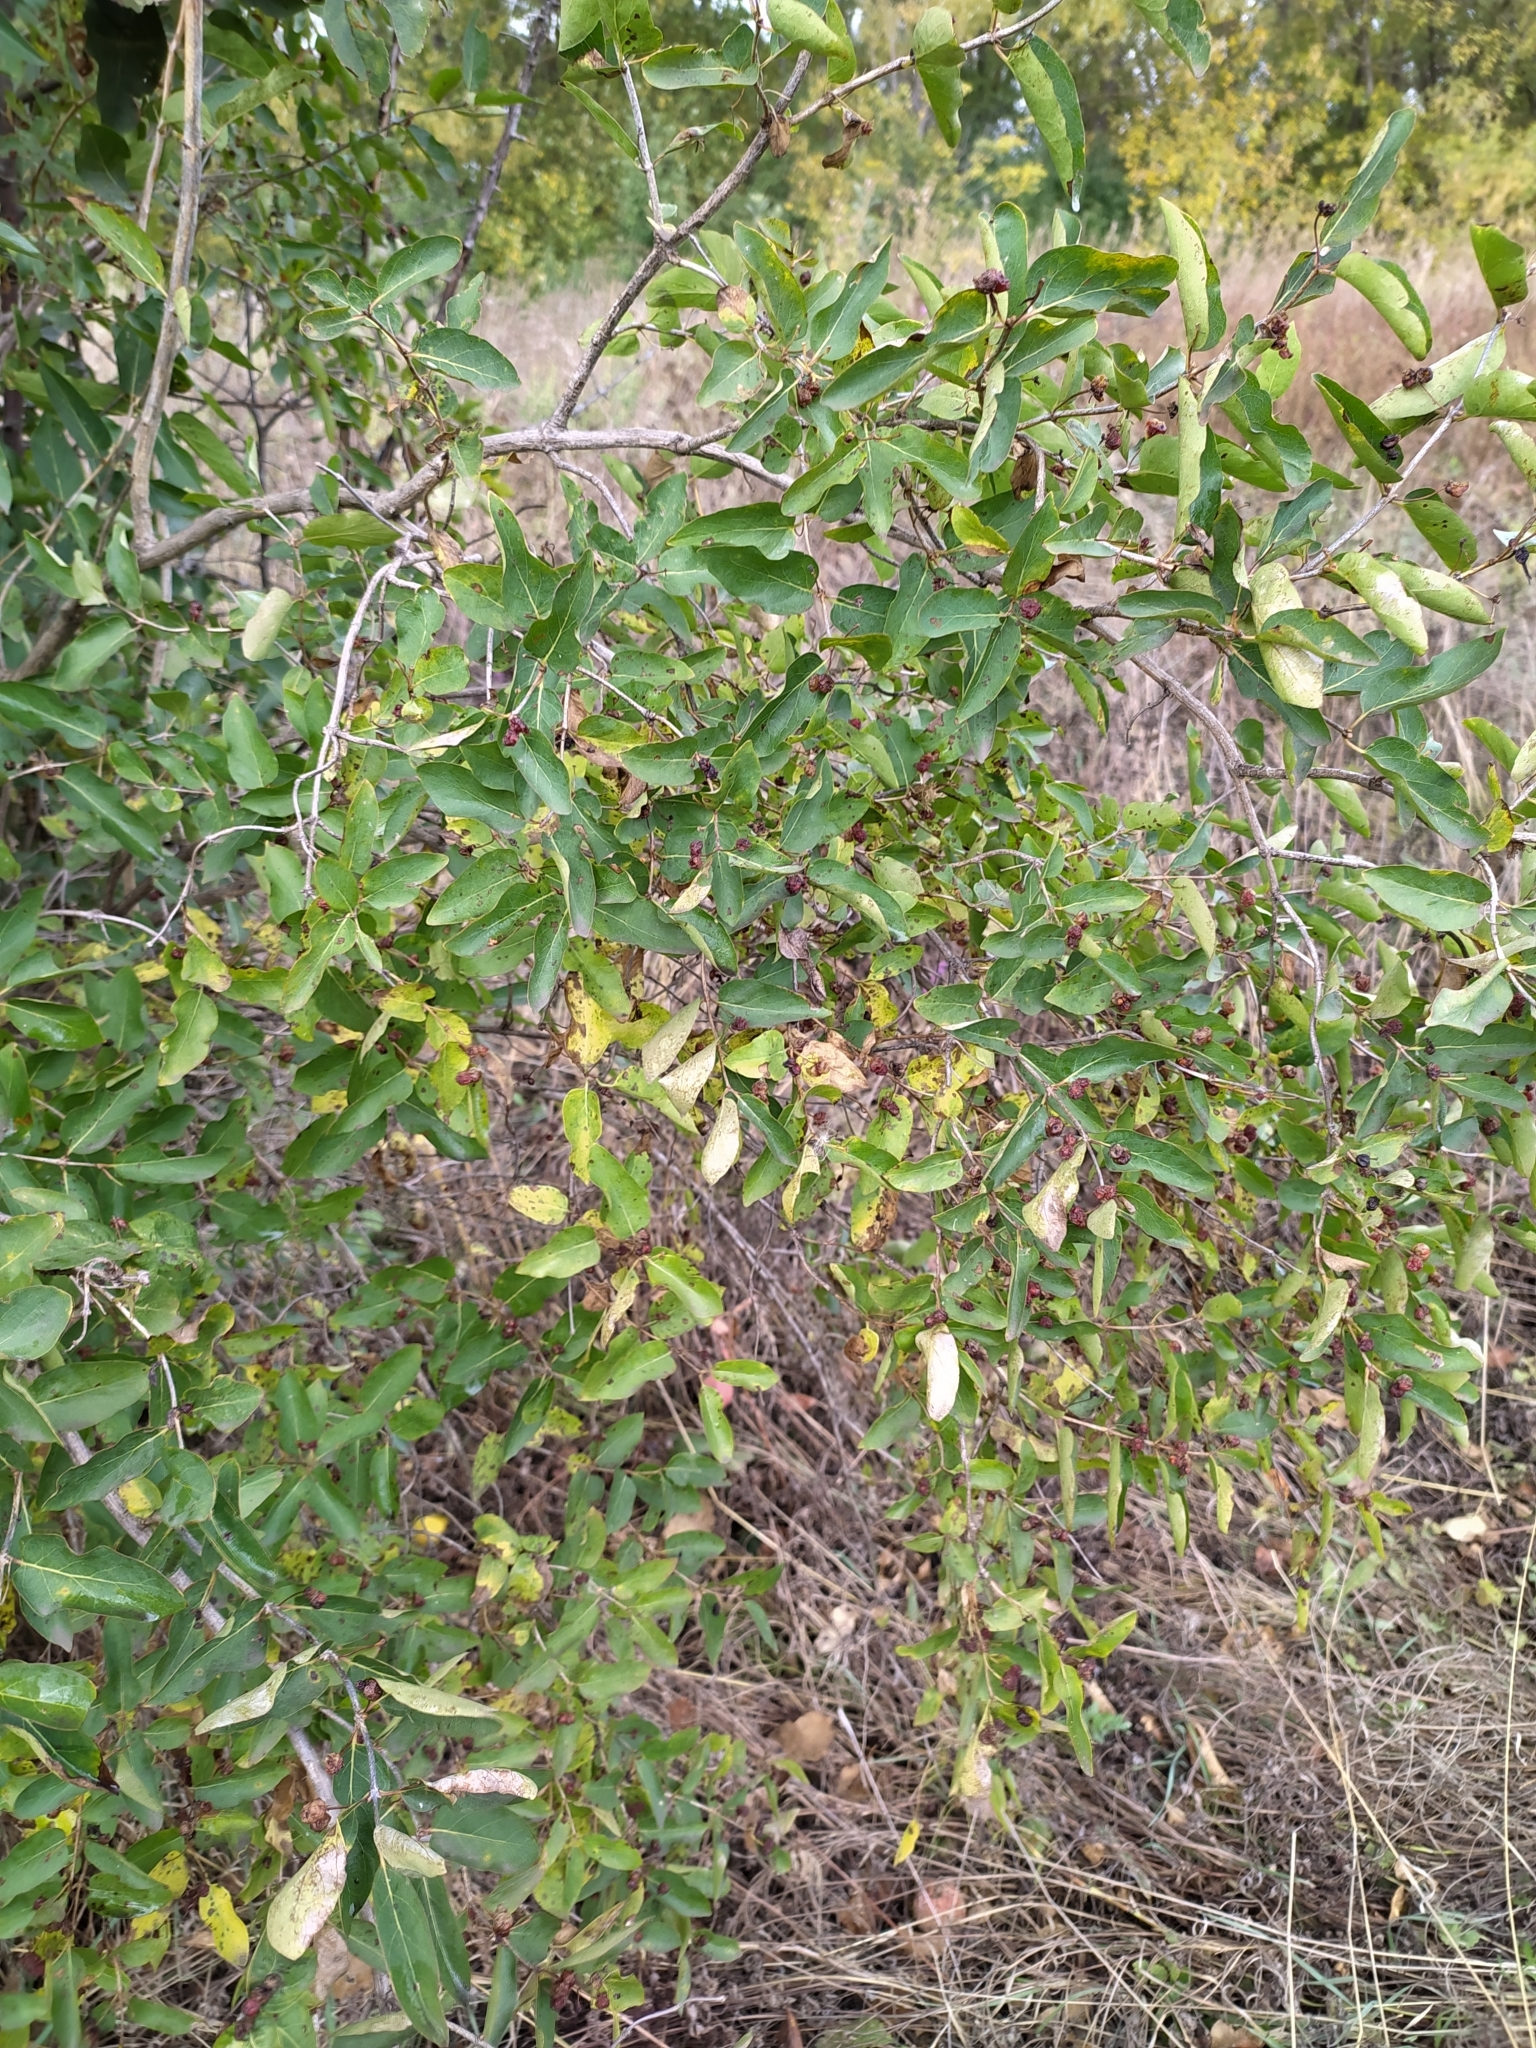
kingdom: Plantae
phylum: Tracheophyta
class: Magnoliopsida
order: Dipsacales
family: Caprifoliaceae
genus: Lonicera
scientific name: Lonicera tatarica
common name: Tatarian honeysuckle
